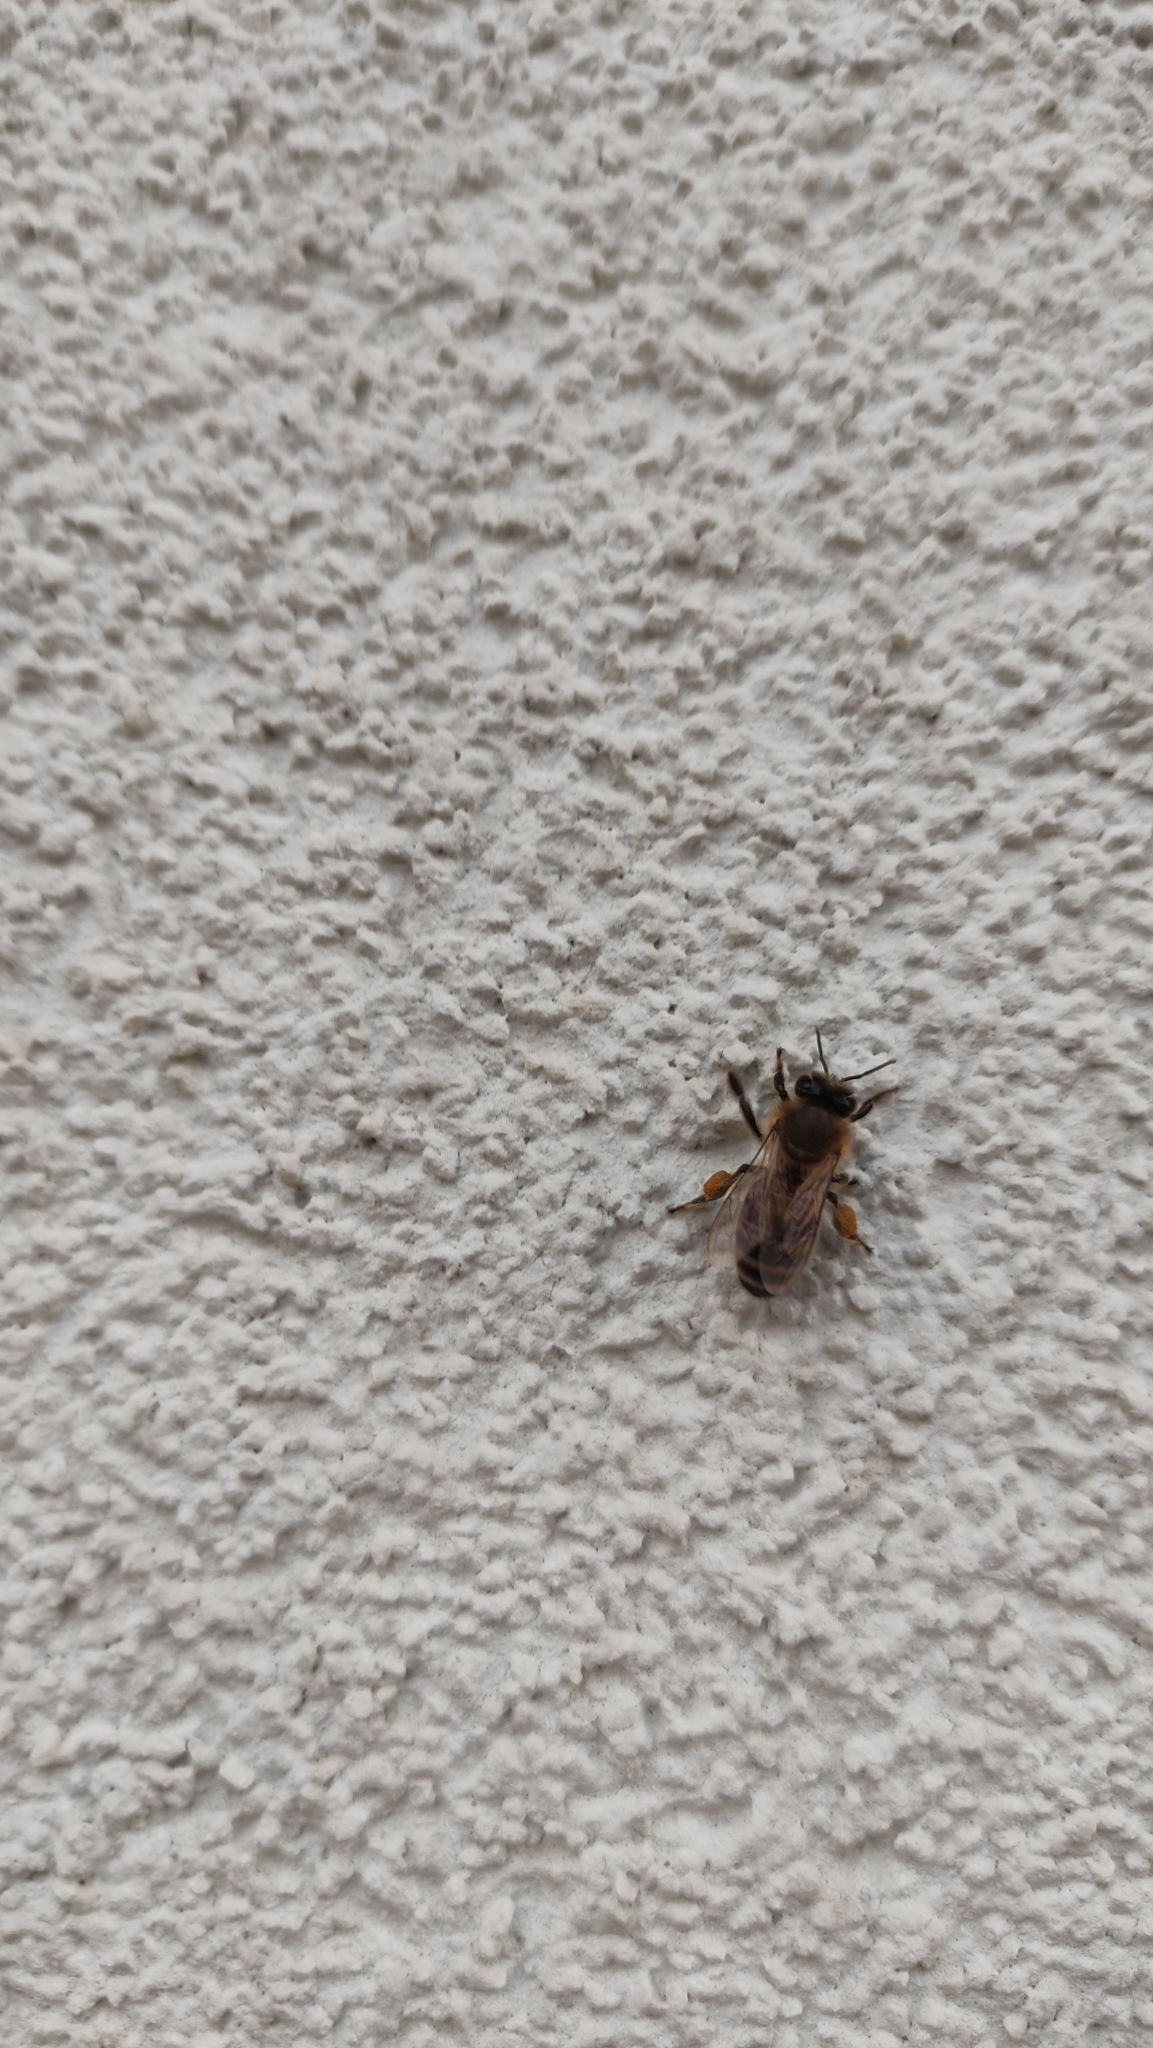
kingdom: Animalia
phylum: Arthropoda
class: Insecta
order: Hymenoptera
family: Apidae
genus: Apis
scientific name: Apis mellifera
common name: Honey bee
